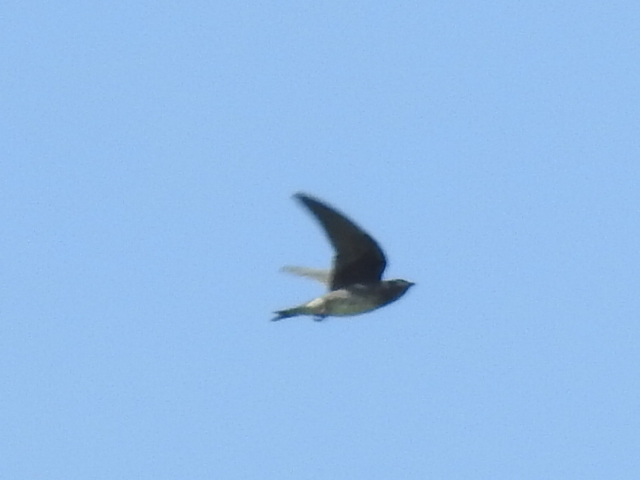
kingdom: Animalia
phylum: Chordata
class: Aves
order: Passeriformes
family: Hirundinidae
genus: Progne
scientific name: Progne subis
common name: Purple martin
